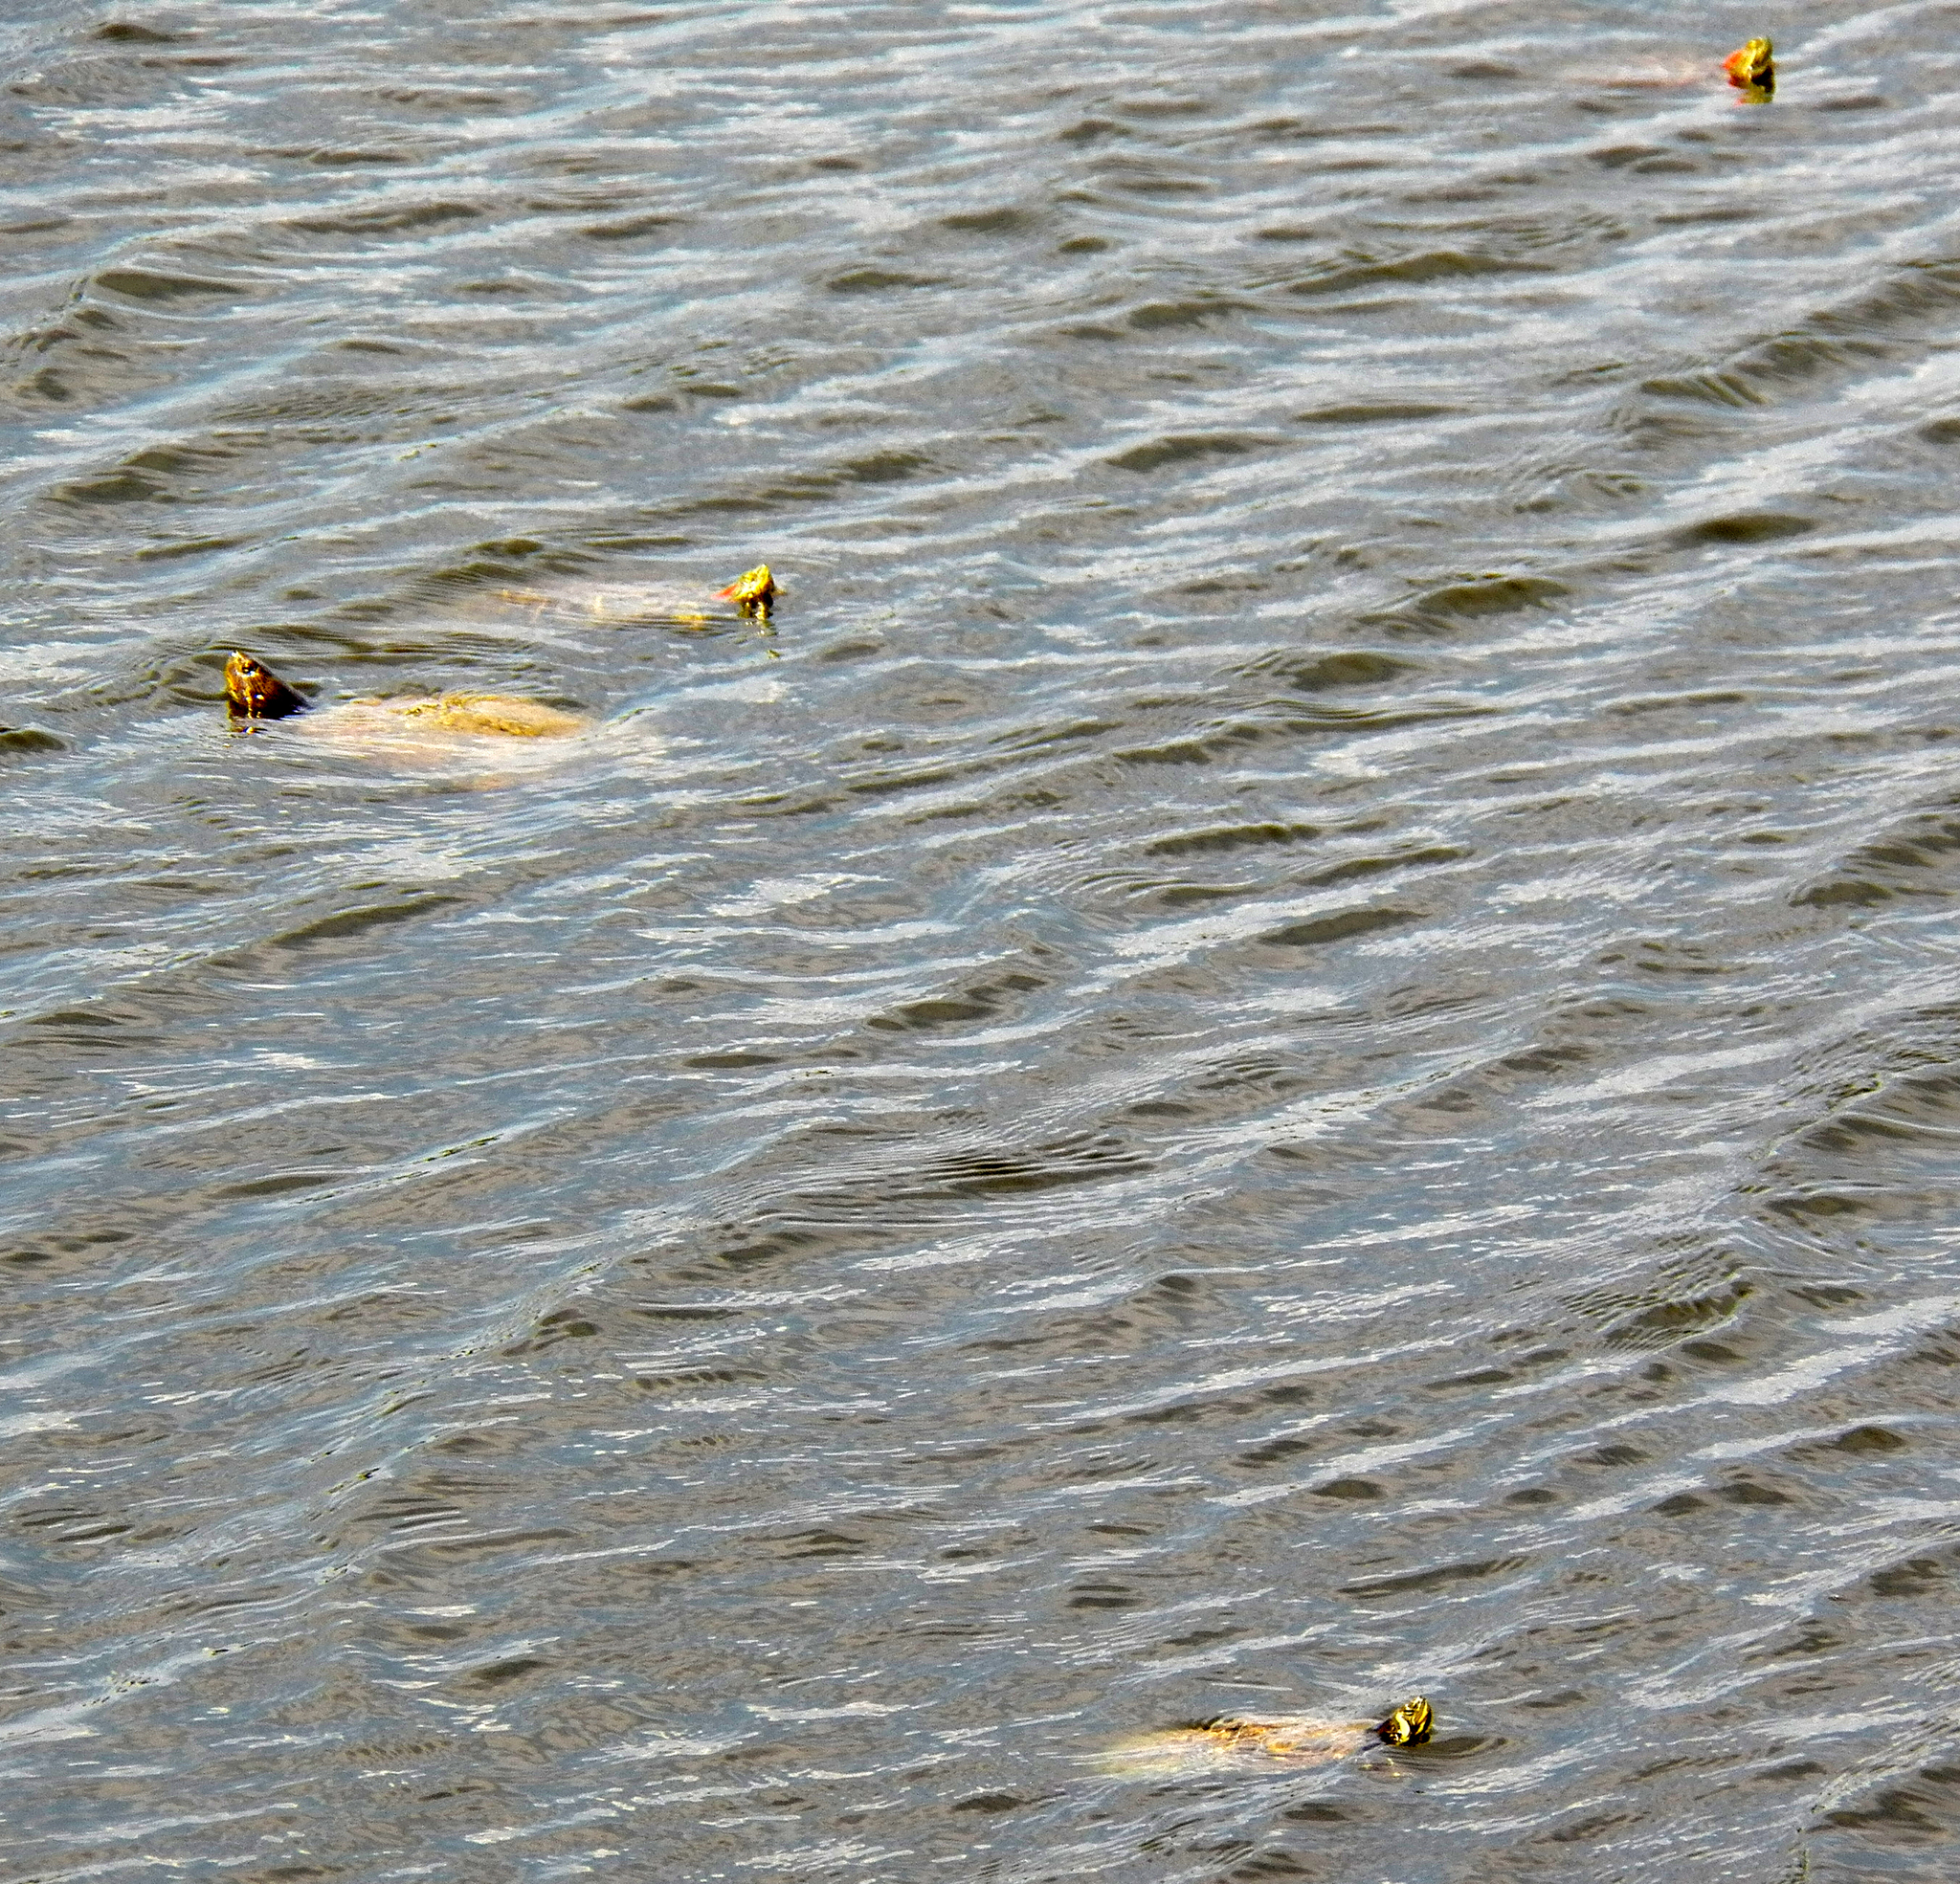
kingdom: Animalia
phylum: Chordata
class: Testudines
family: Emydidae
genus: Trachemys
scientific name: Trachemys scripta
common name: Slider
